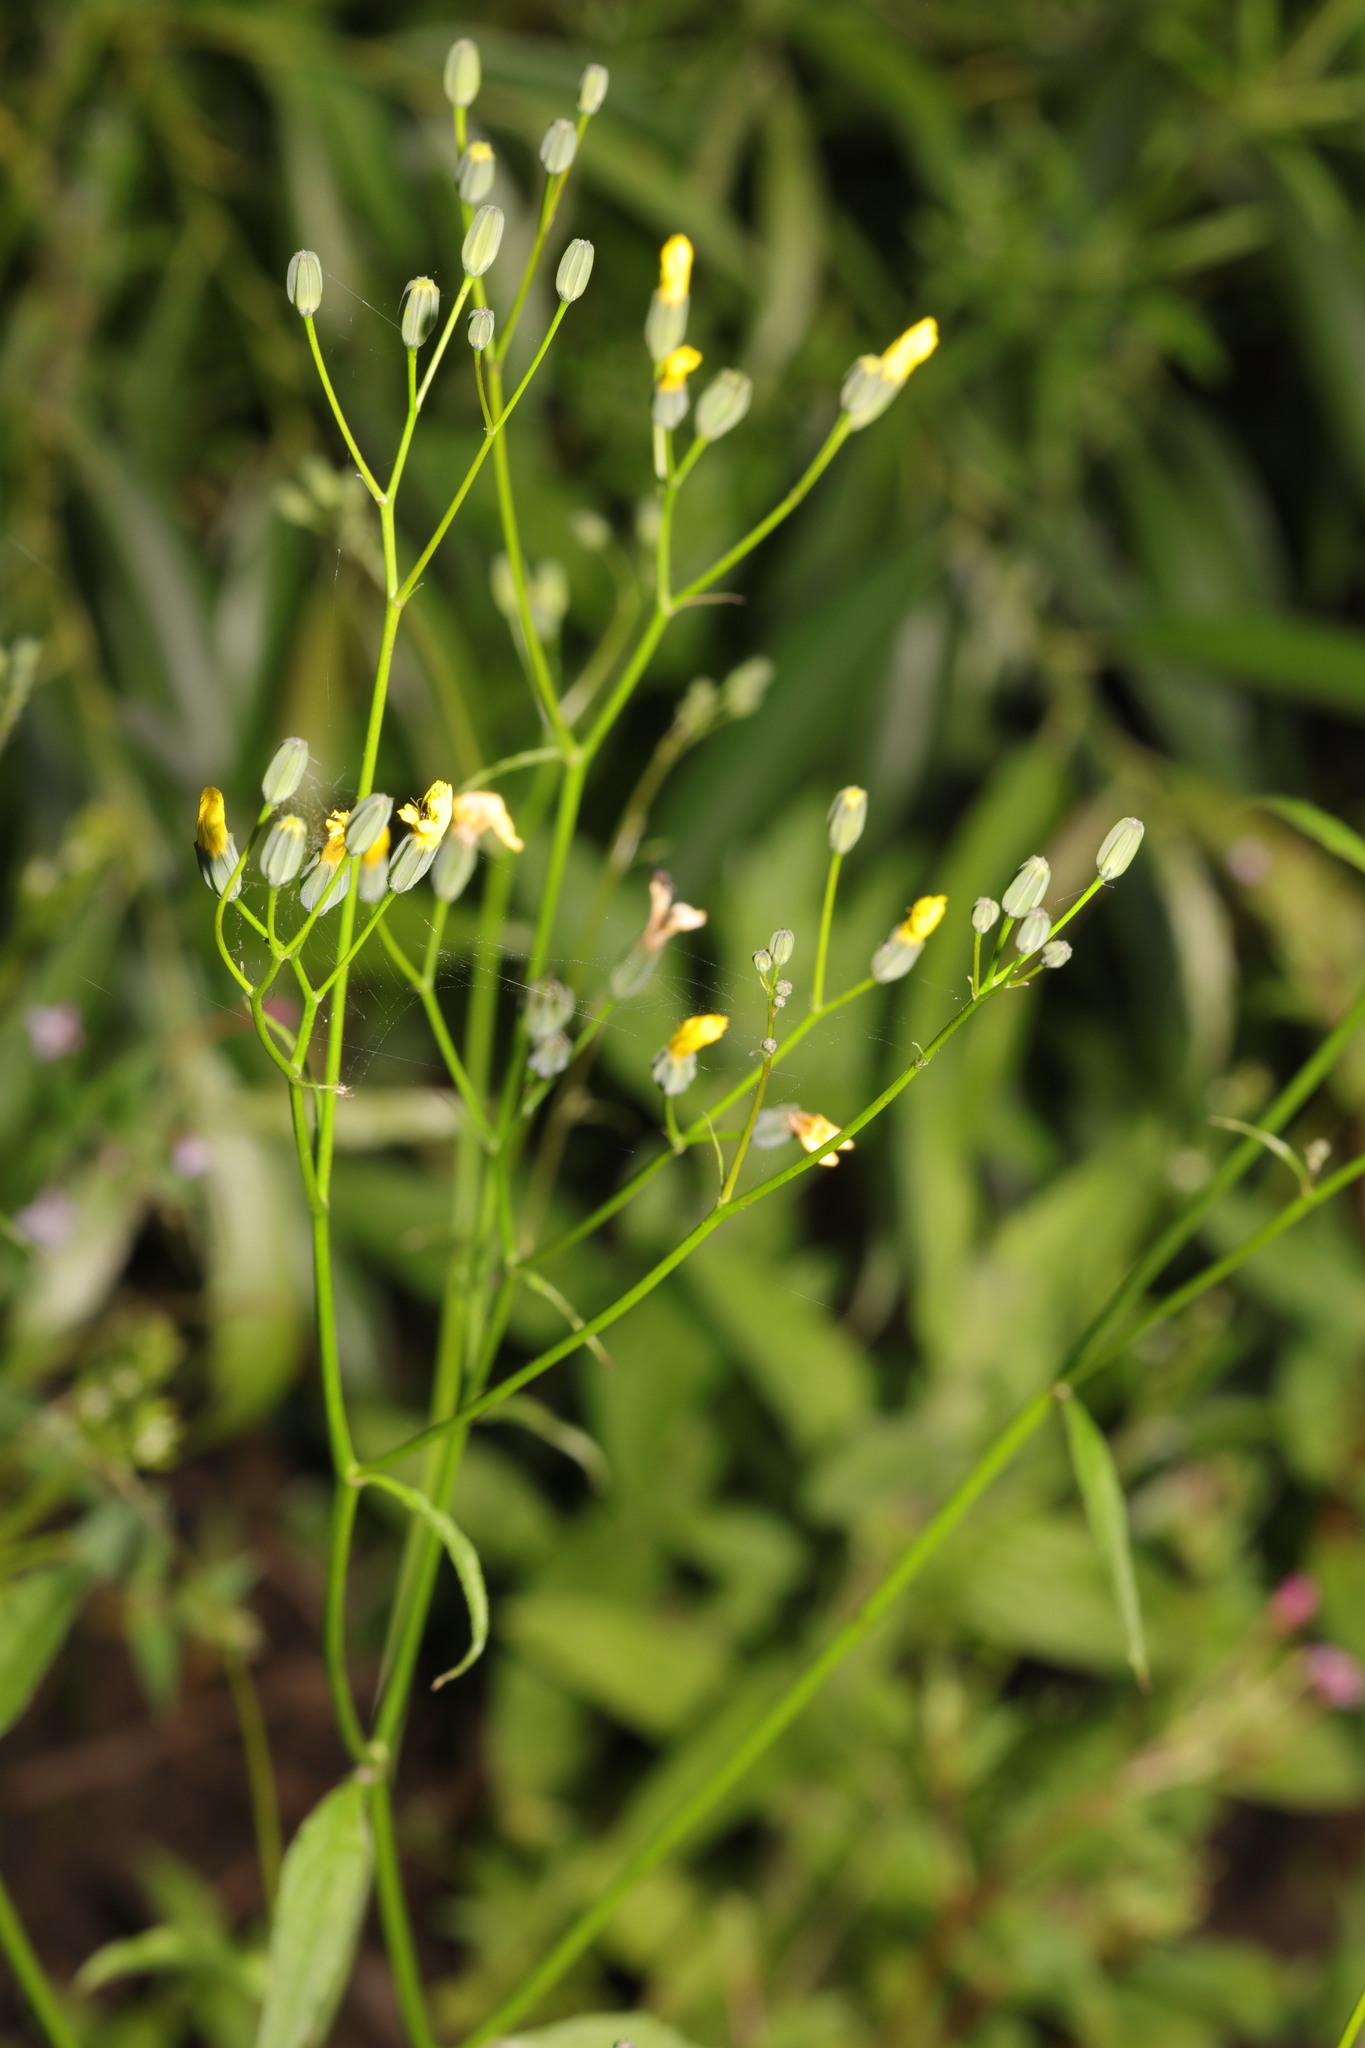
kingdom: Plantae
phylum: Tracheophyta
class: Magnoliopsida
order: Asterales
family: Asteraceae
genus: Lapsana
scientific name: Lapsana communis
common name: Nipplewort
